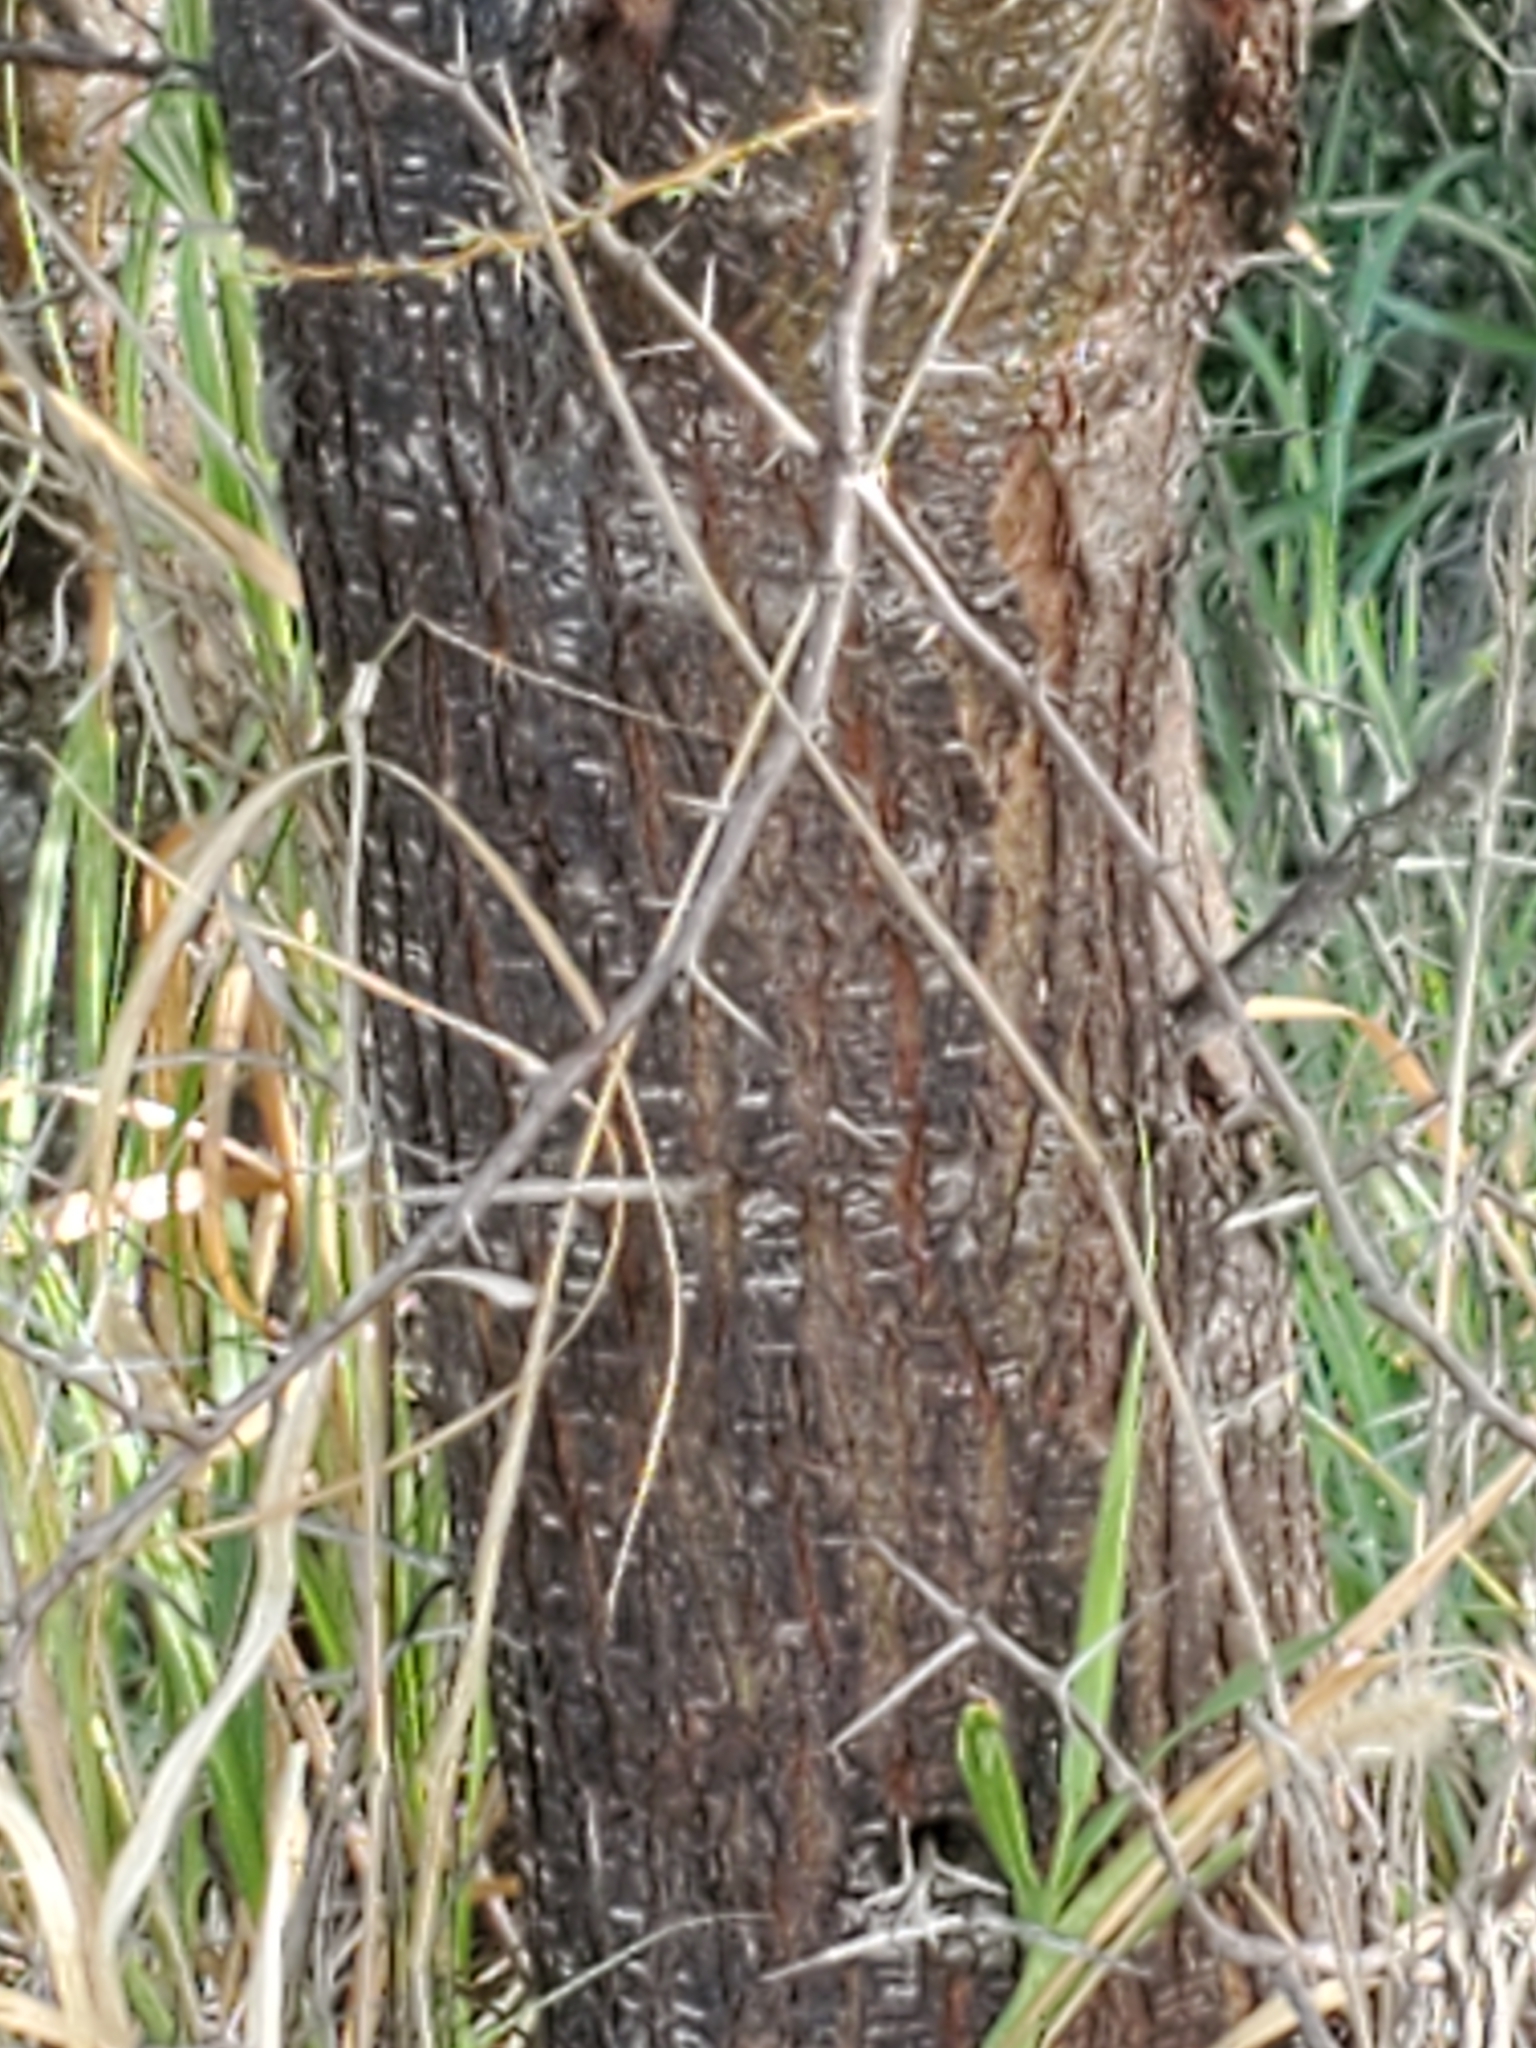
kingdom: Plantae
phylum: Tracheophyta
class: Magnoliopsida
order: Fabales
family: Fabaceae
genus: Vachellia
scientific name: Vachellia farnesiana
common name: Sweet acacia
